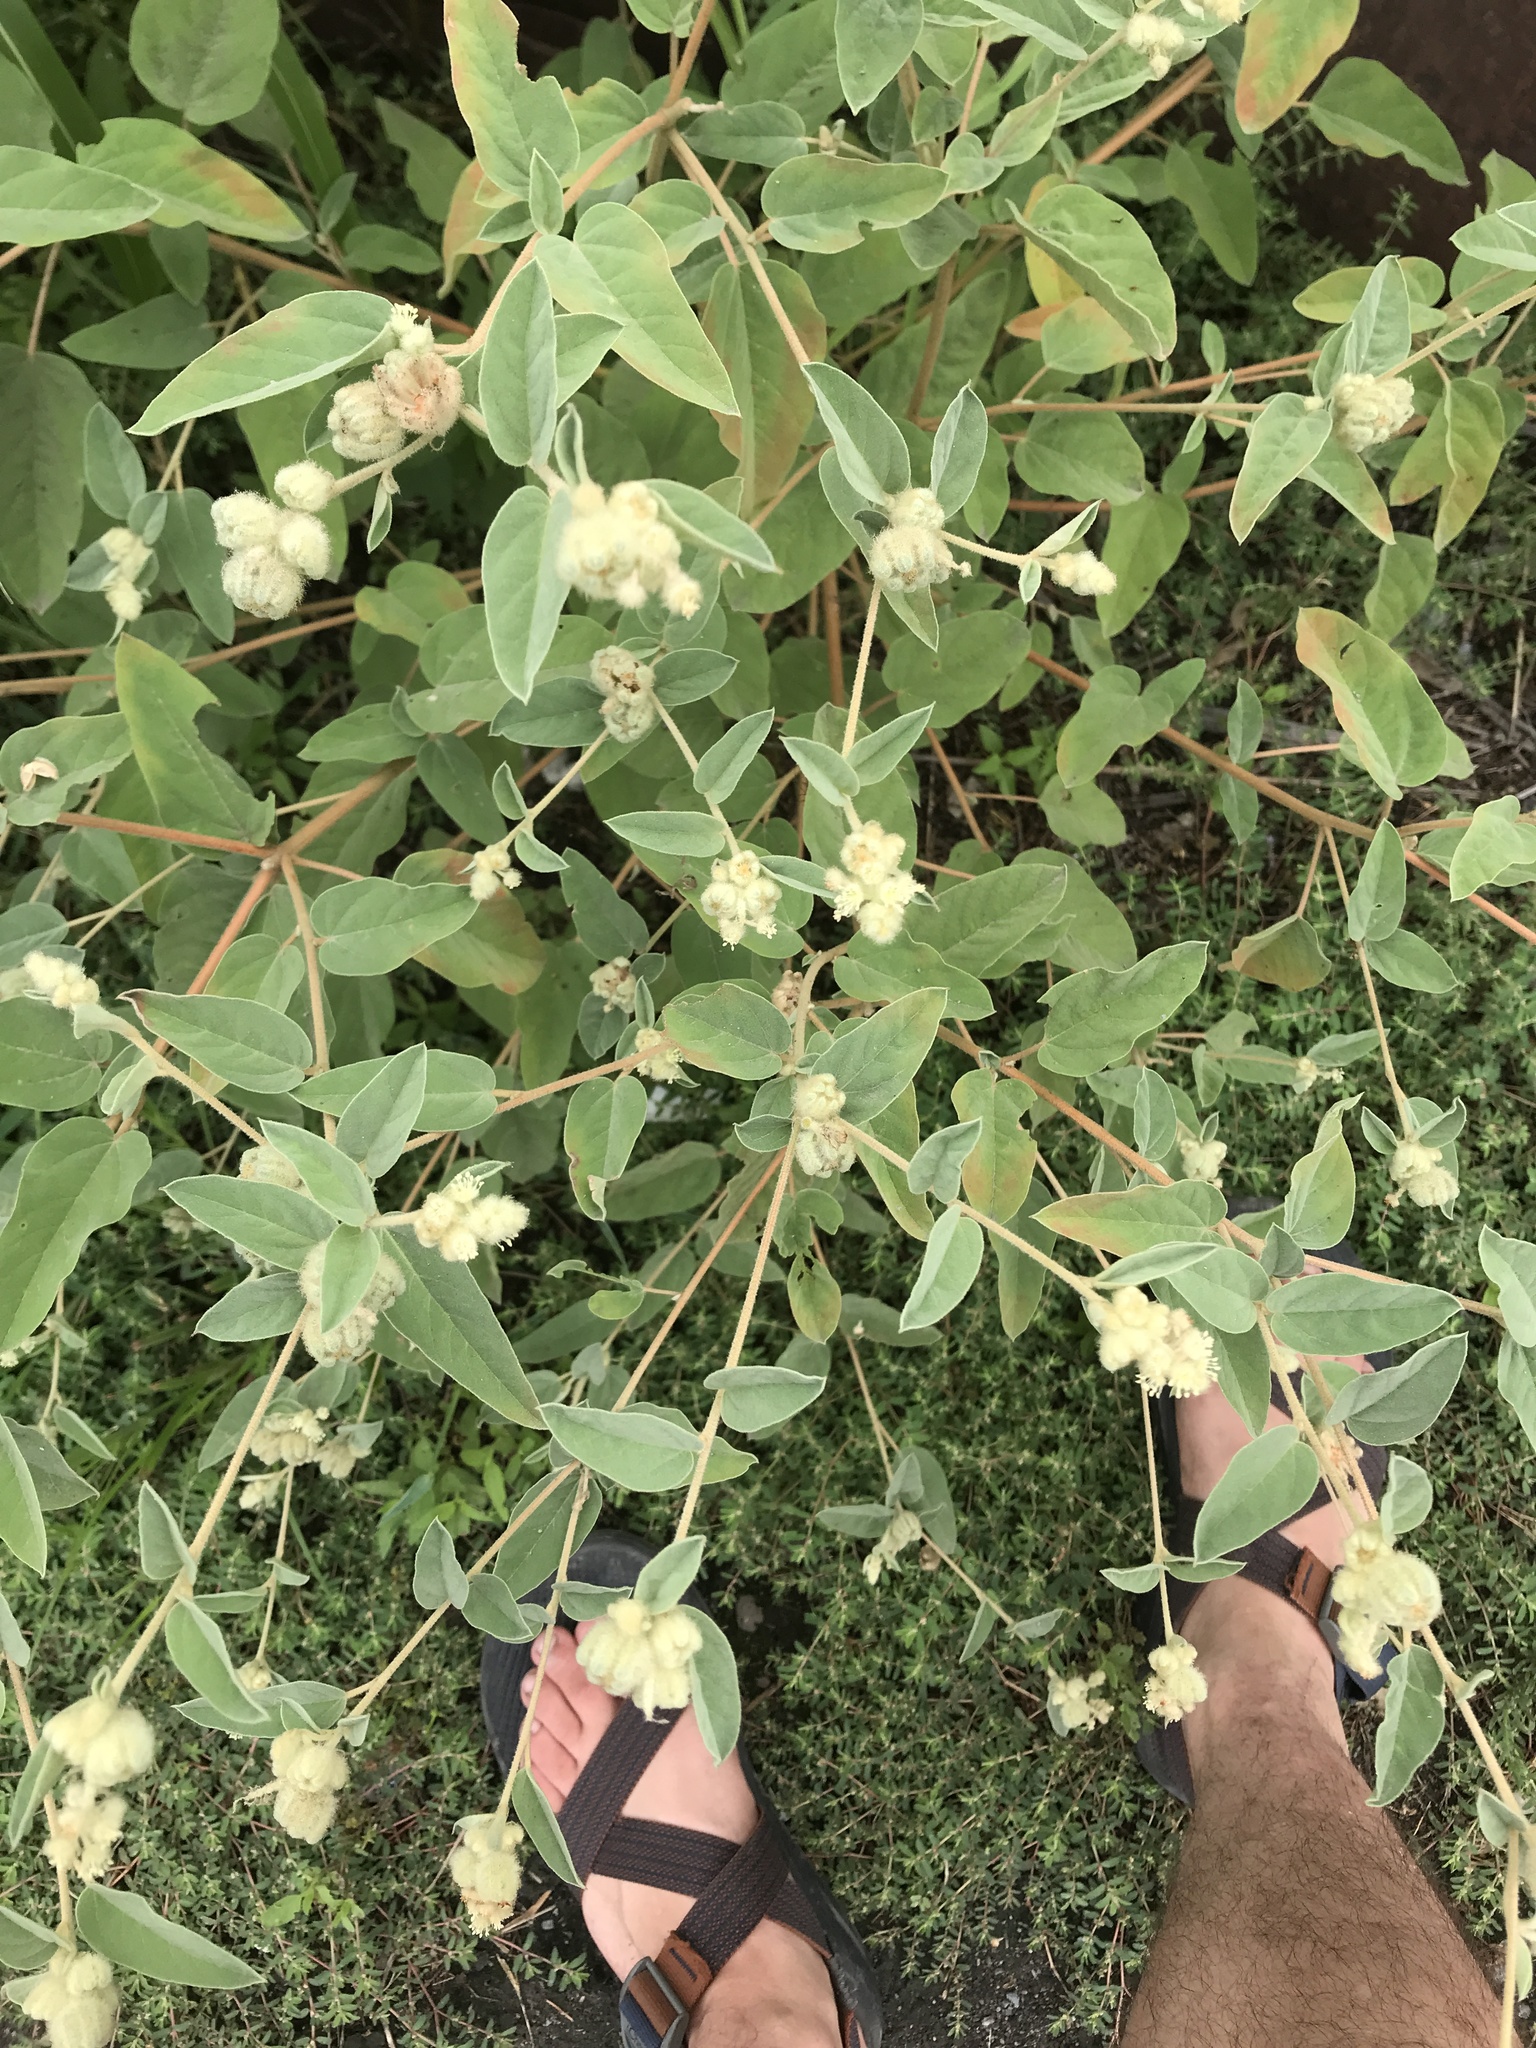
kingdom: Plantae
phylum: Tracheophyta
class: Magnoliopsida
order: Malpighiales
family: Euphorbiaceae
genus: Croton
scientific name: Croton lindheimeri
